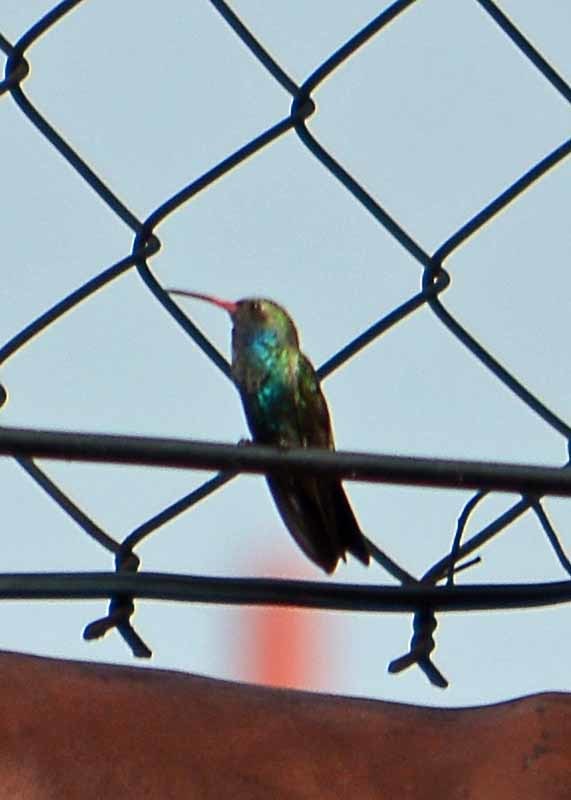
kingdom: Animalia
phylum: Chordata
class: Aves
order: Apodiformes
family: Trochilidae
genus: Cynanthus
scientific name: Cynanthus latirostris
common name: Broad-billed hummingbird
